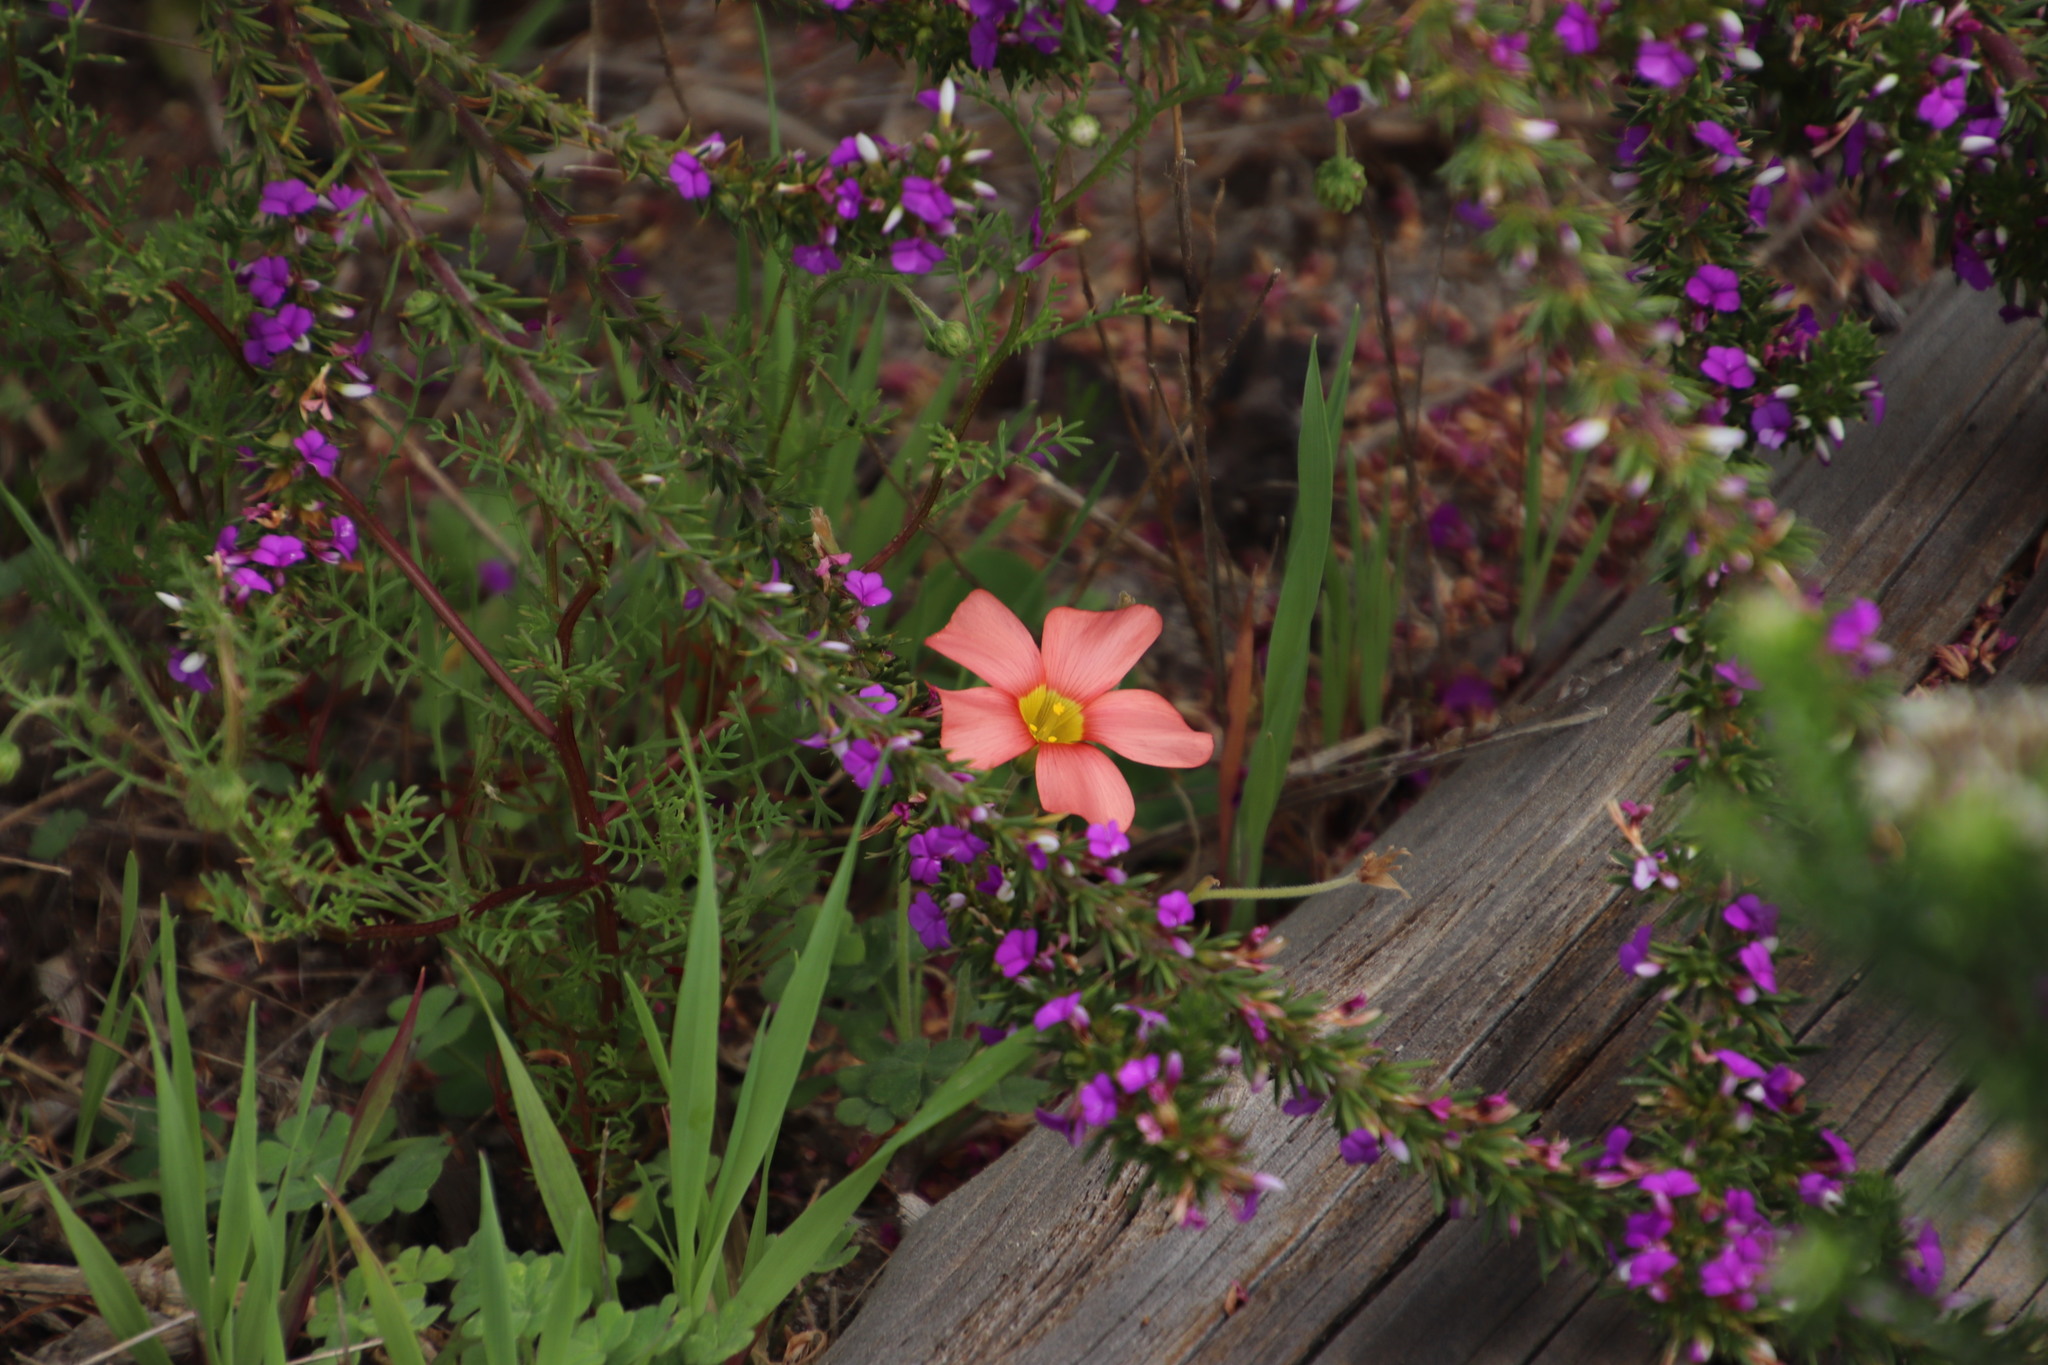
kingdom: Plantae
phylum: Tracheophyta
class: Magnoliopsida
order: Oxalidales
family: Oxalidaceae
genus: Oxalis
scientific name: Oxalis obtusa
